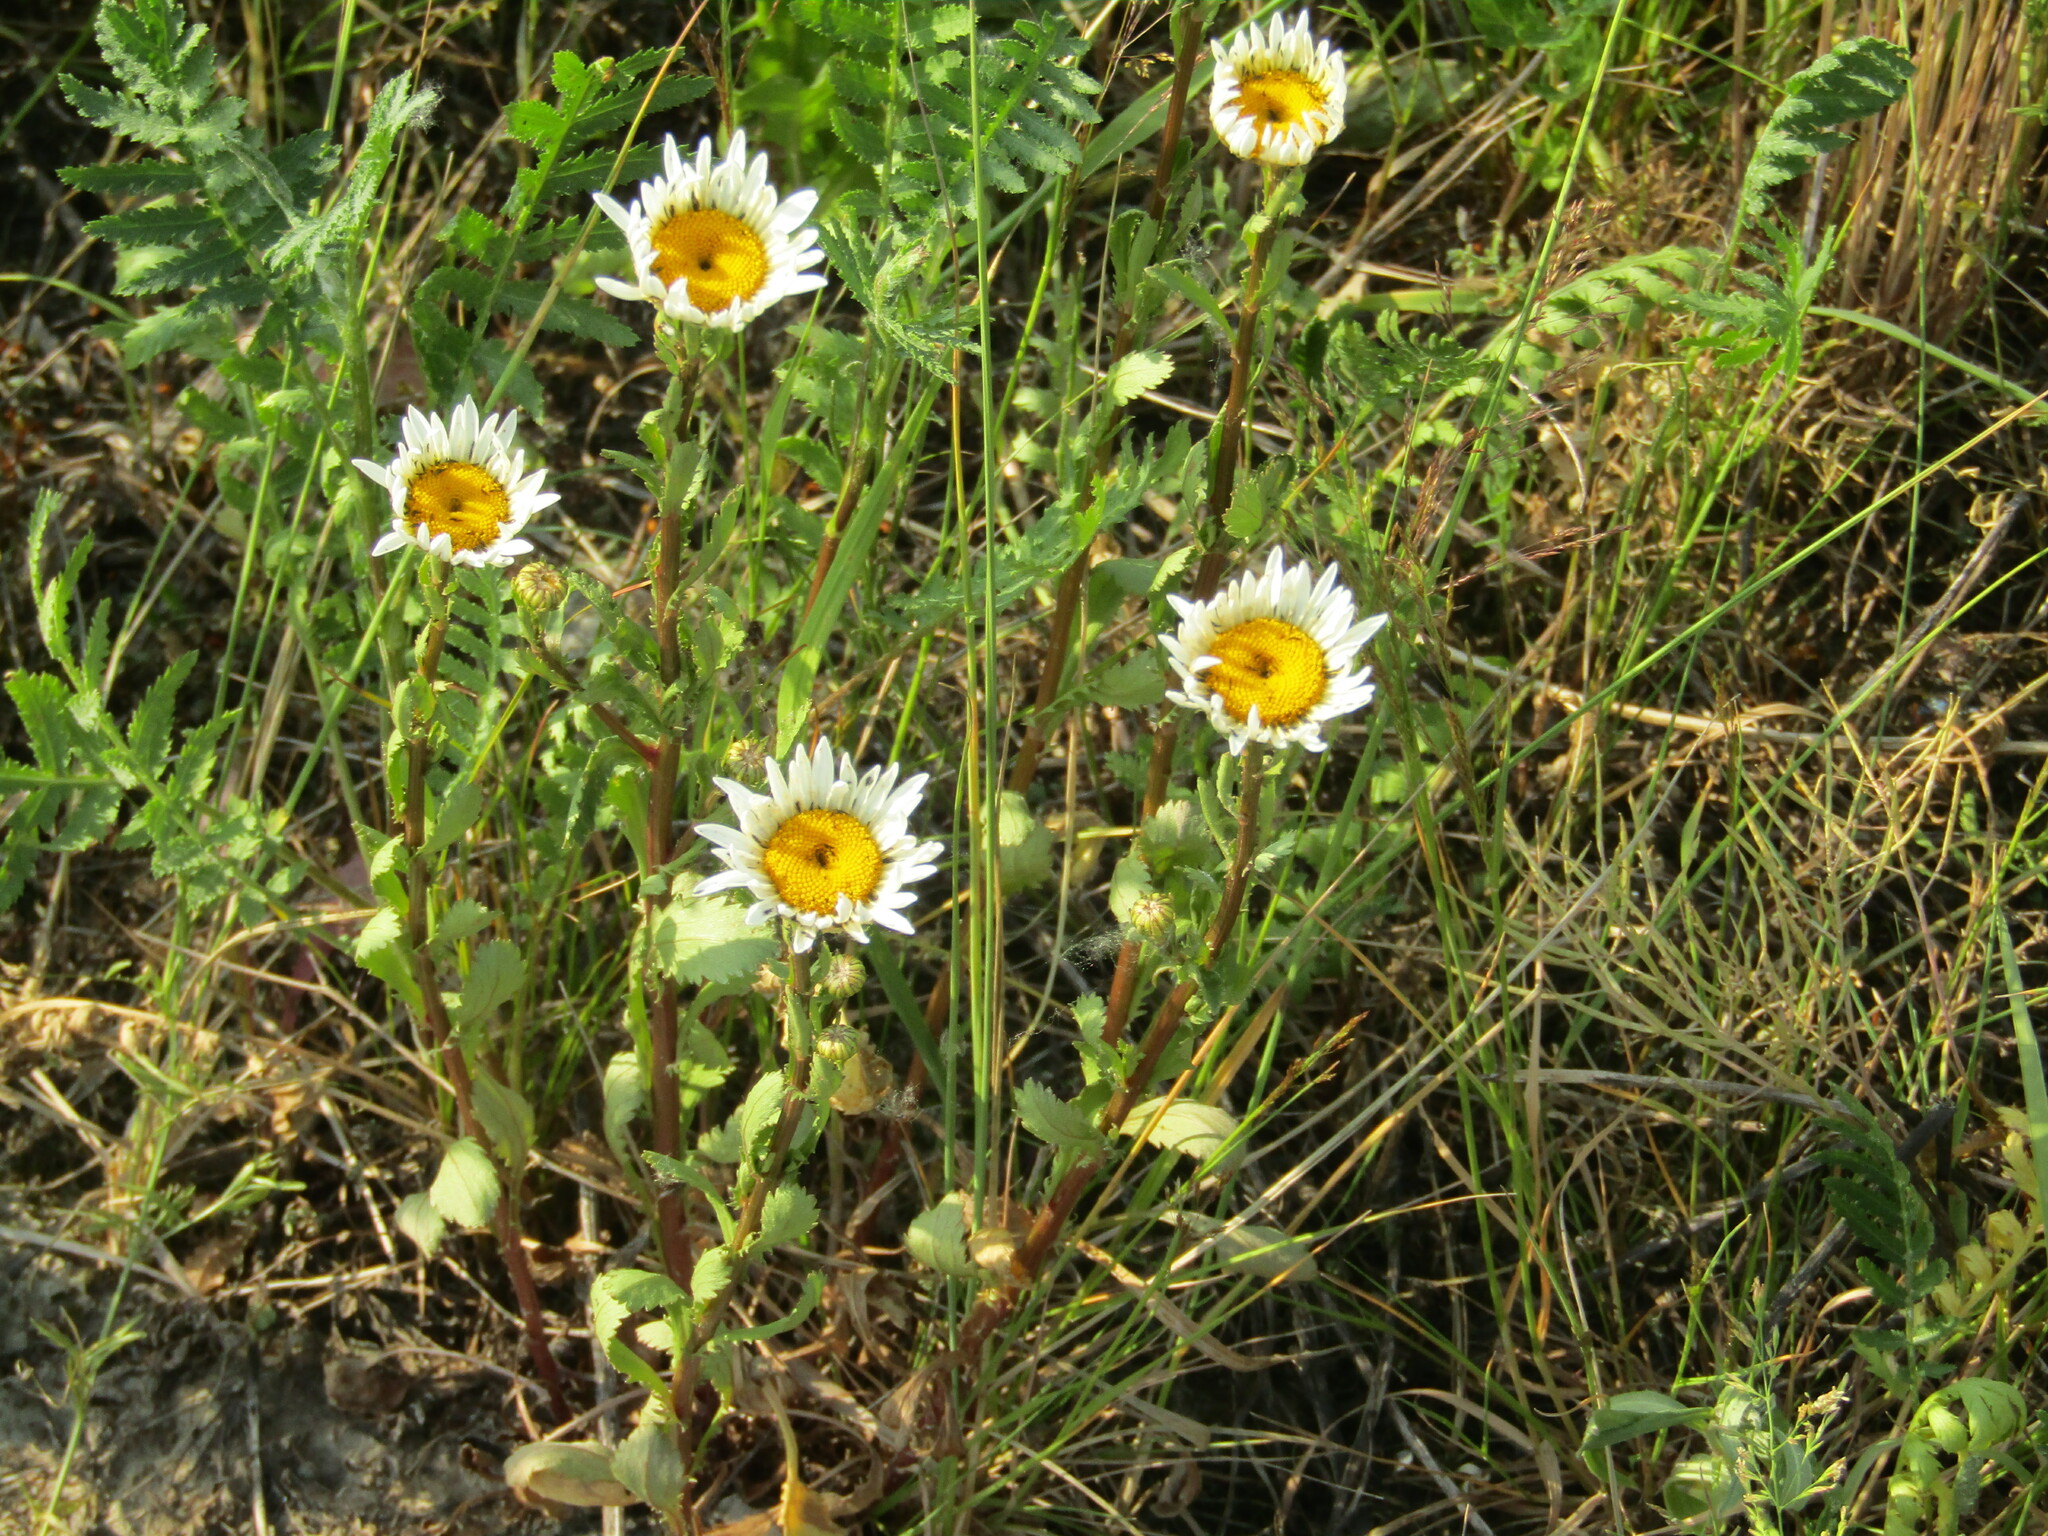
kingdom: Plantae
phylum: Tracheophyta
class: Magnoliopsida
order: Asterales
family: Asteraceae
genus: Leucanthemum
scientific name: Leucanthemum vulgare
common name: Oxeye daisy
